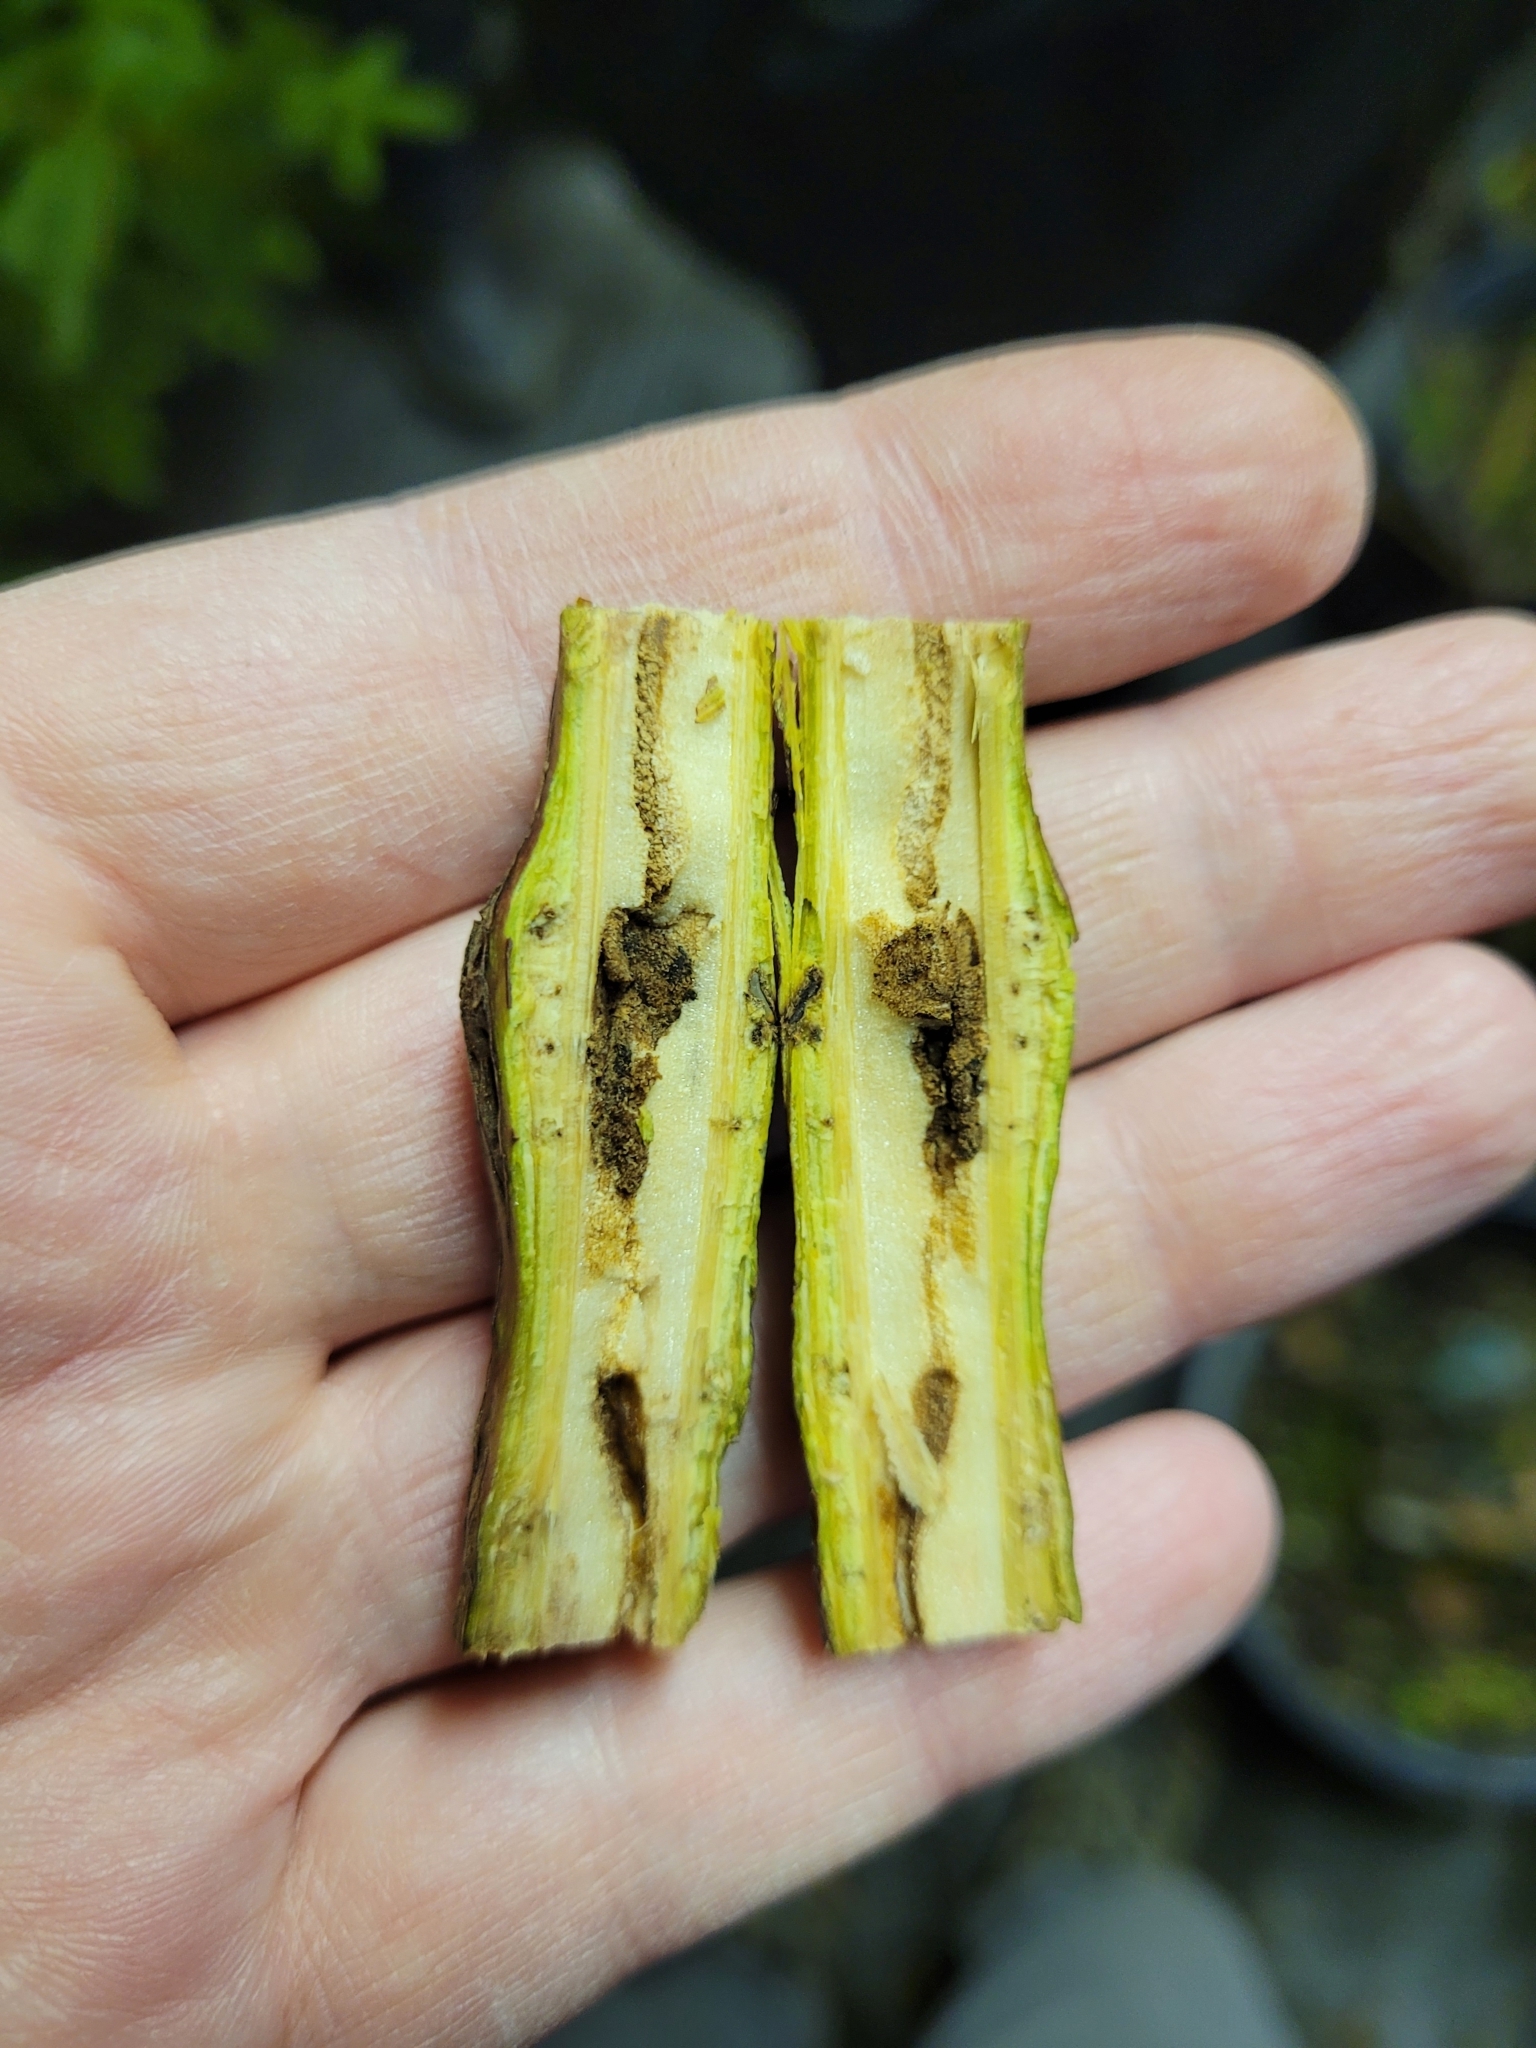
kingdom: Animalia
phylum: Arthropoda
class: Insecta
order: Coleoptera
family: Buprestidae
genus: Agrilus
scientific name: Agrilus ruficollis
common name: Red-necked cane borer beetle
